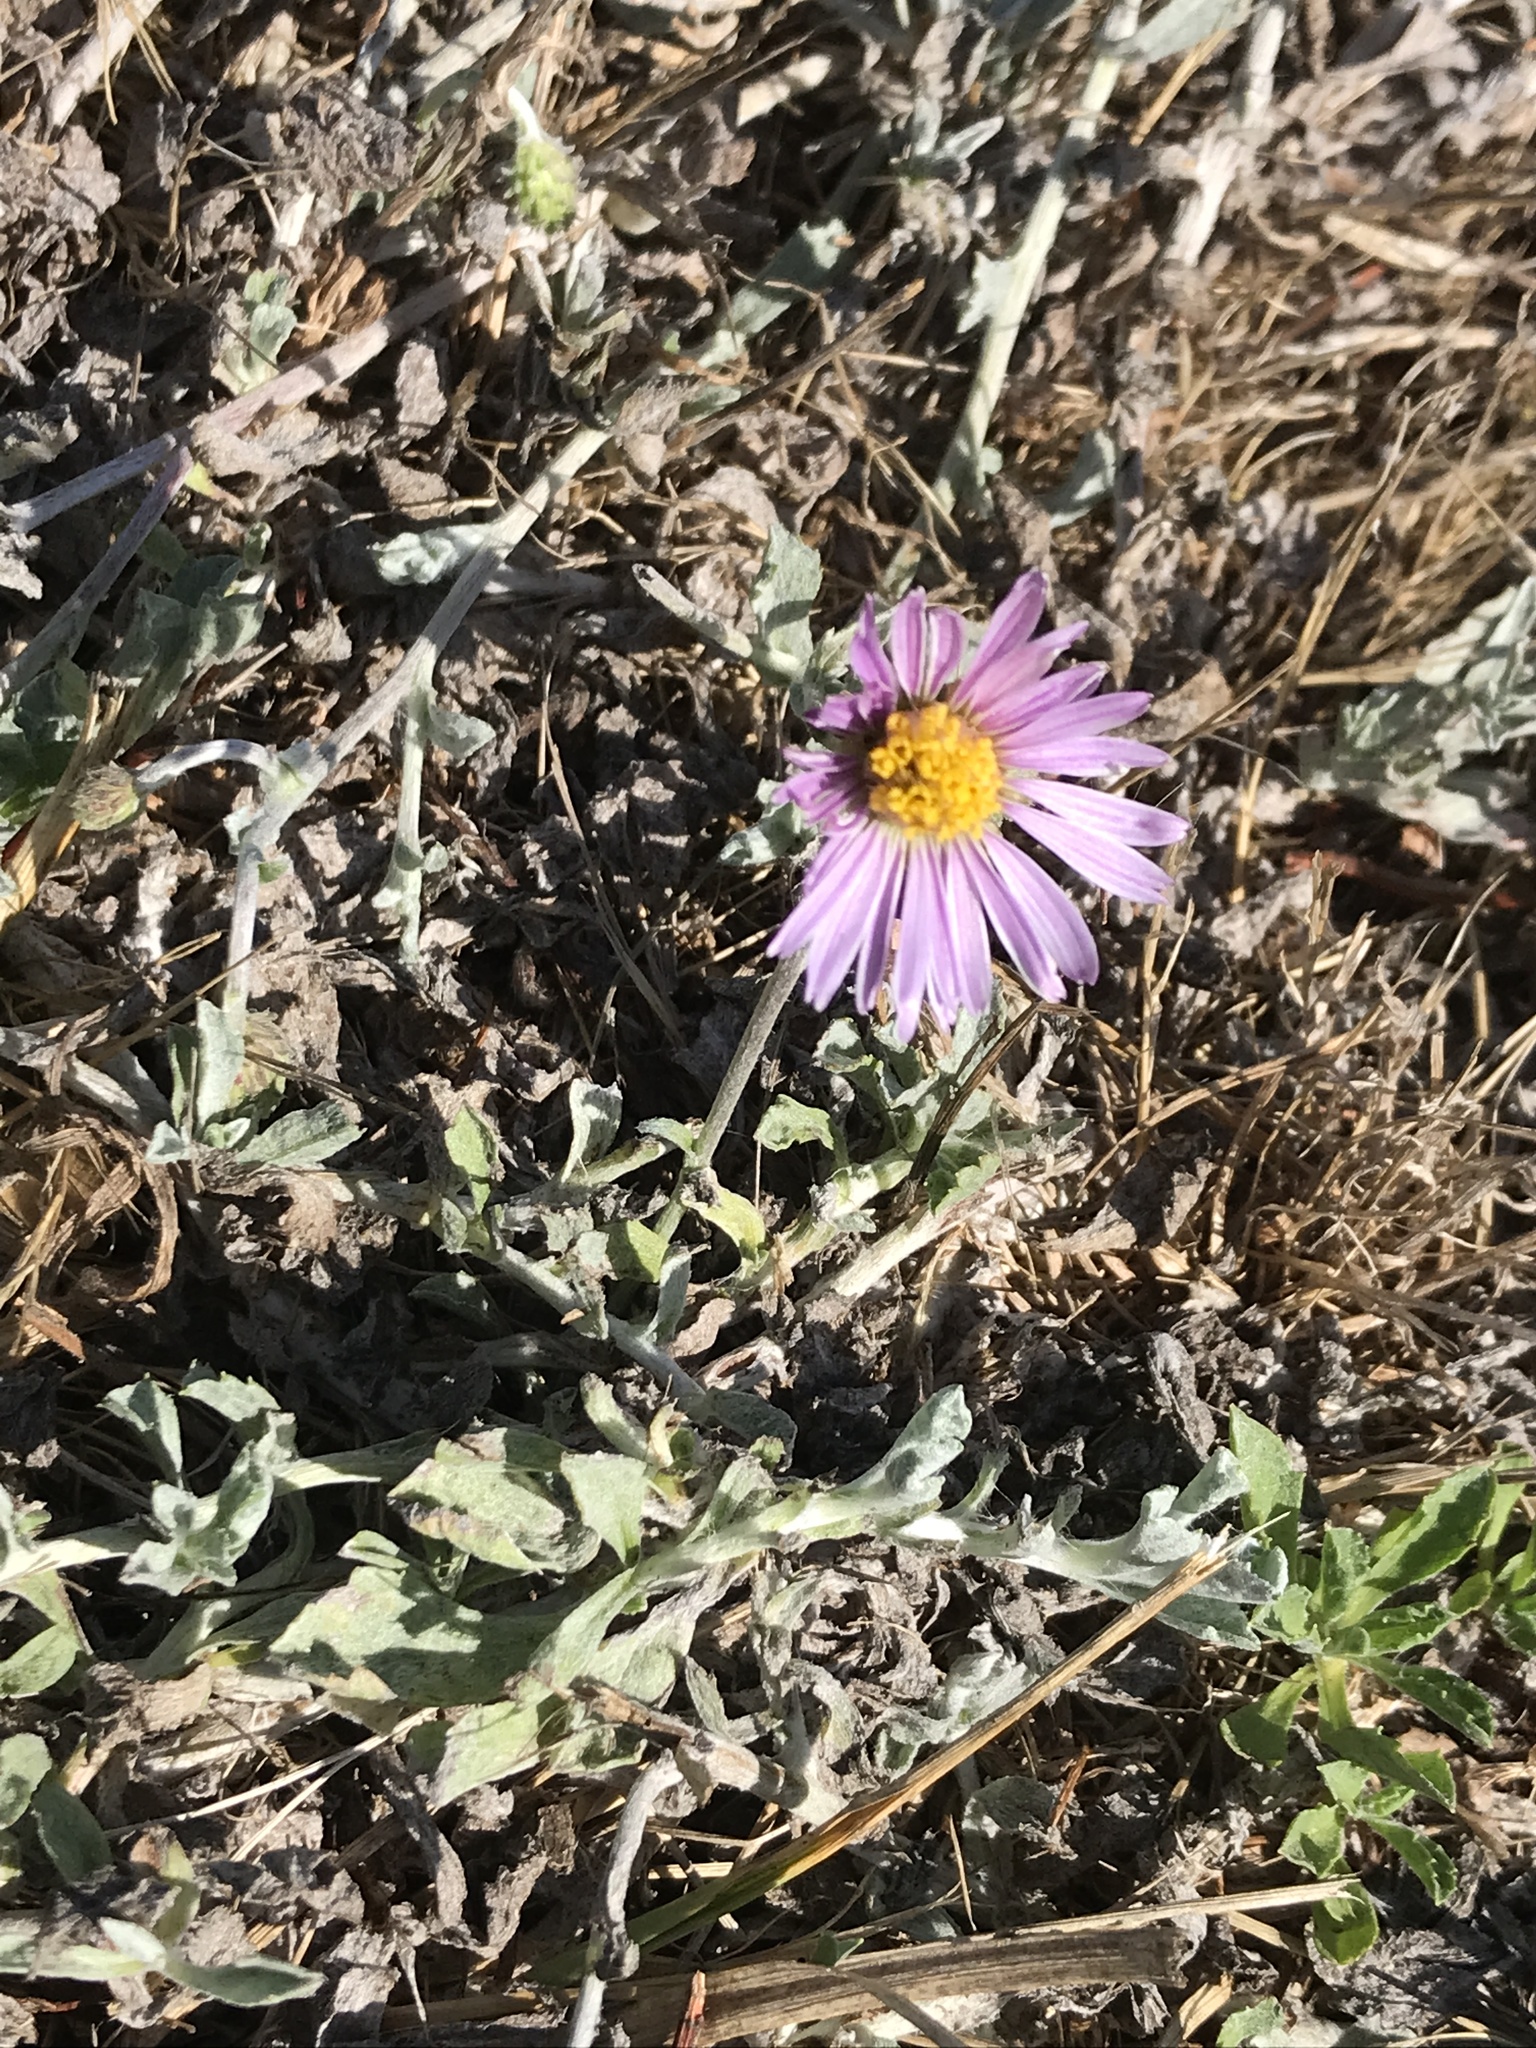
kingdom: Plantae
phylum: Tracheophyta
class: Magnoliopsida
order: Asterales
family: Asteraceae
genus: Corethrogyne
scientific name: Corethrogyne filaginifolia
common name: Sand-aster
